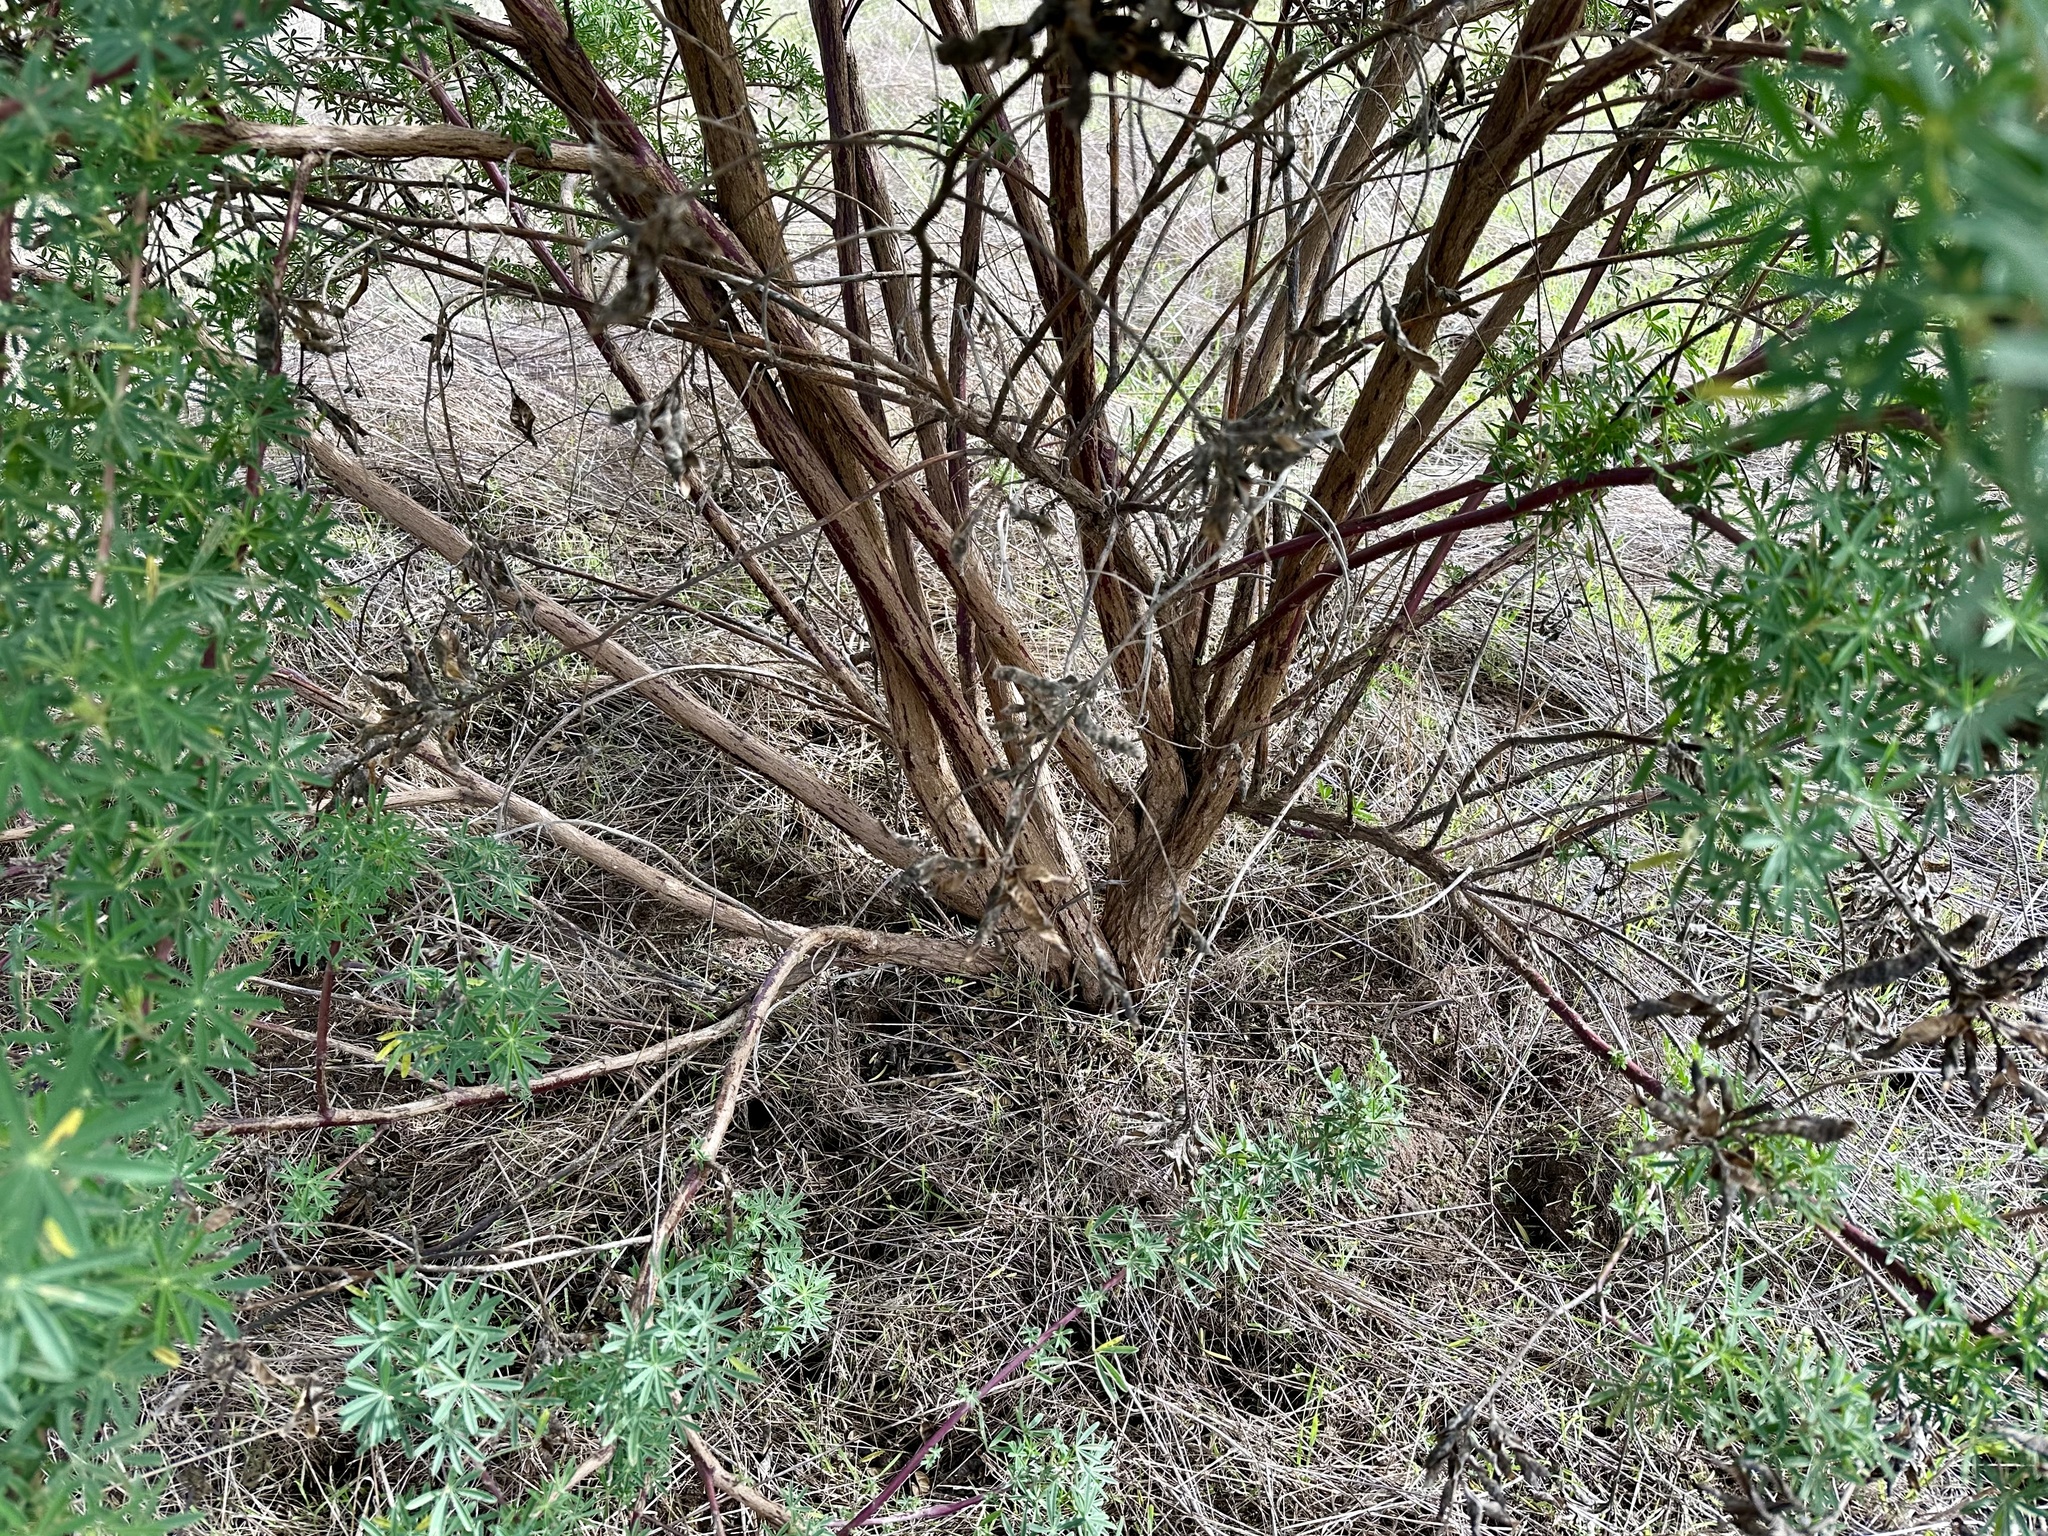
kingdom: Plantae
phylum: Tracheophyta
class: Magnoliopsida
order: Fabales
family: Fabaceae
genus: Lupinus
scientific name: Lupinus arboreus
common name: Yellow bush lupine
